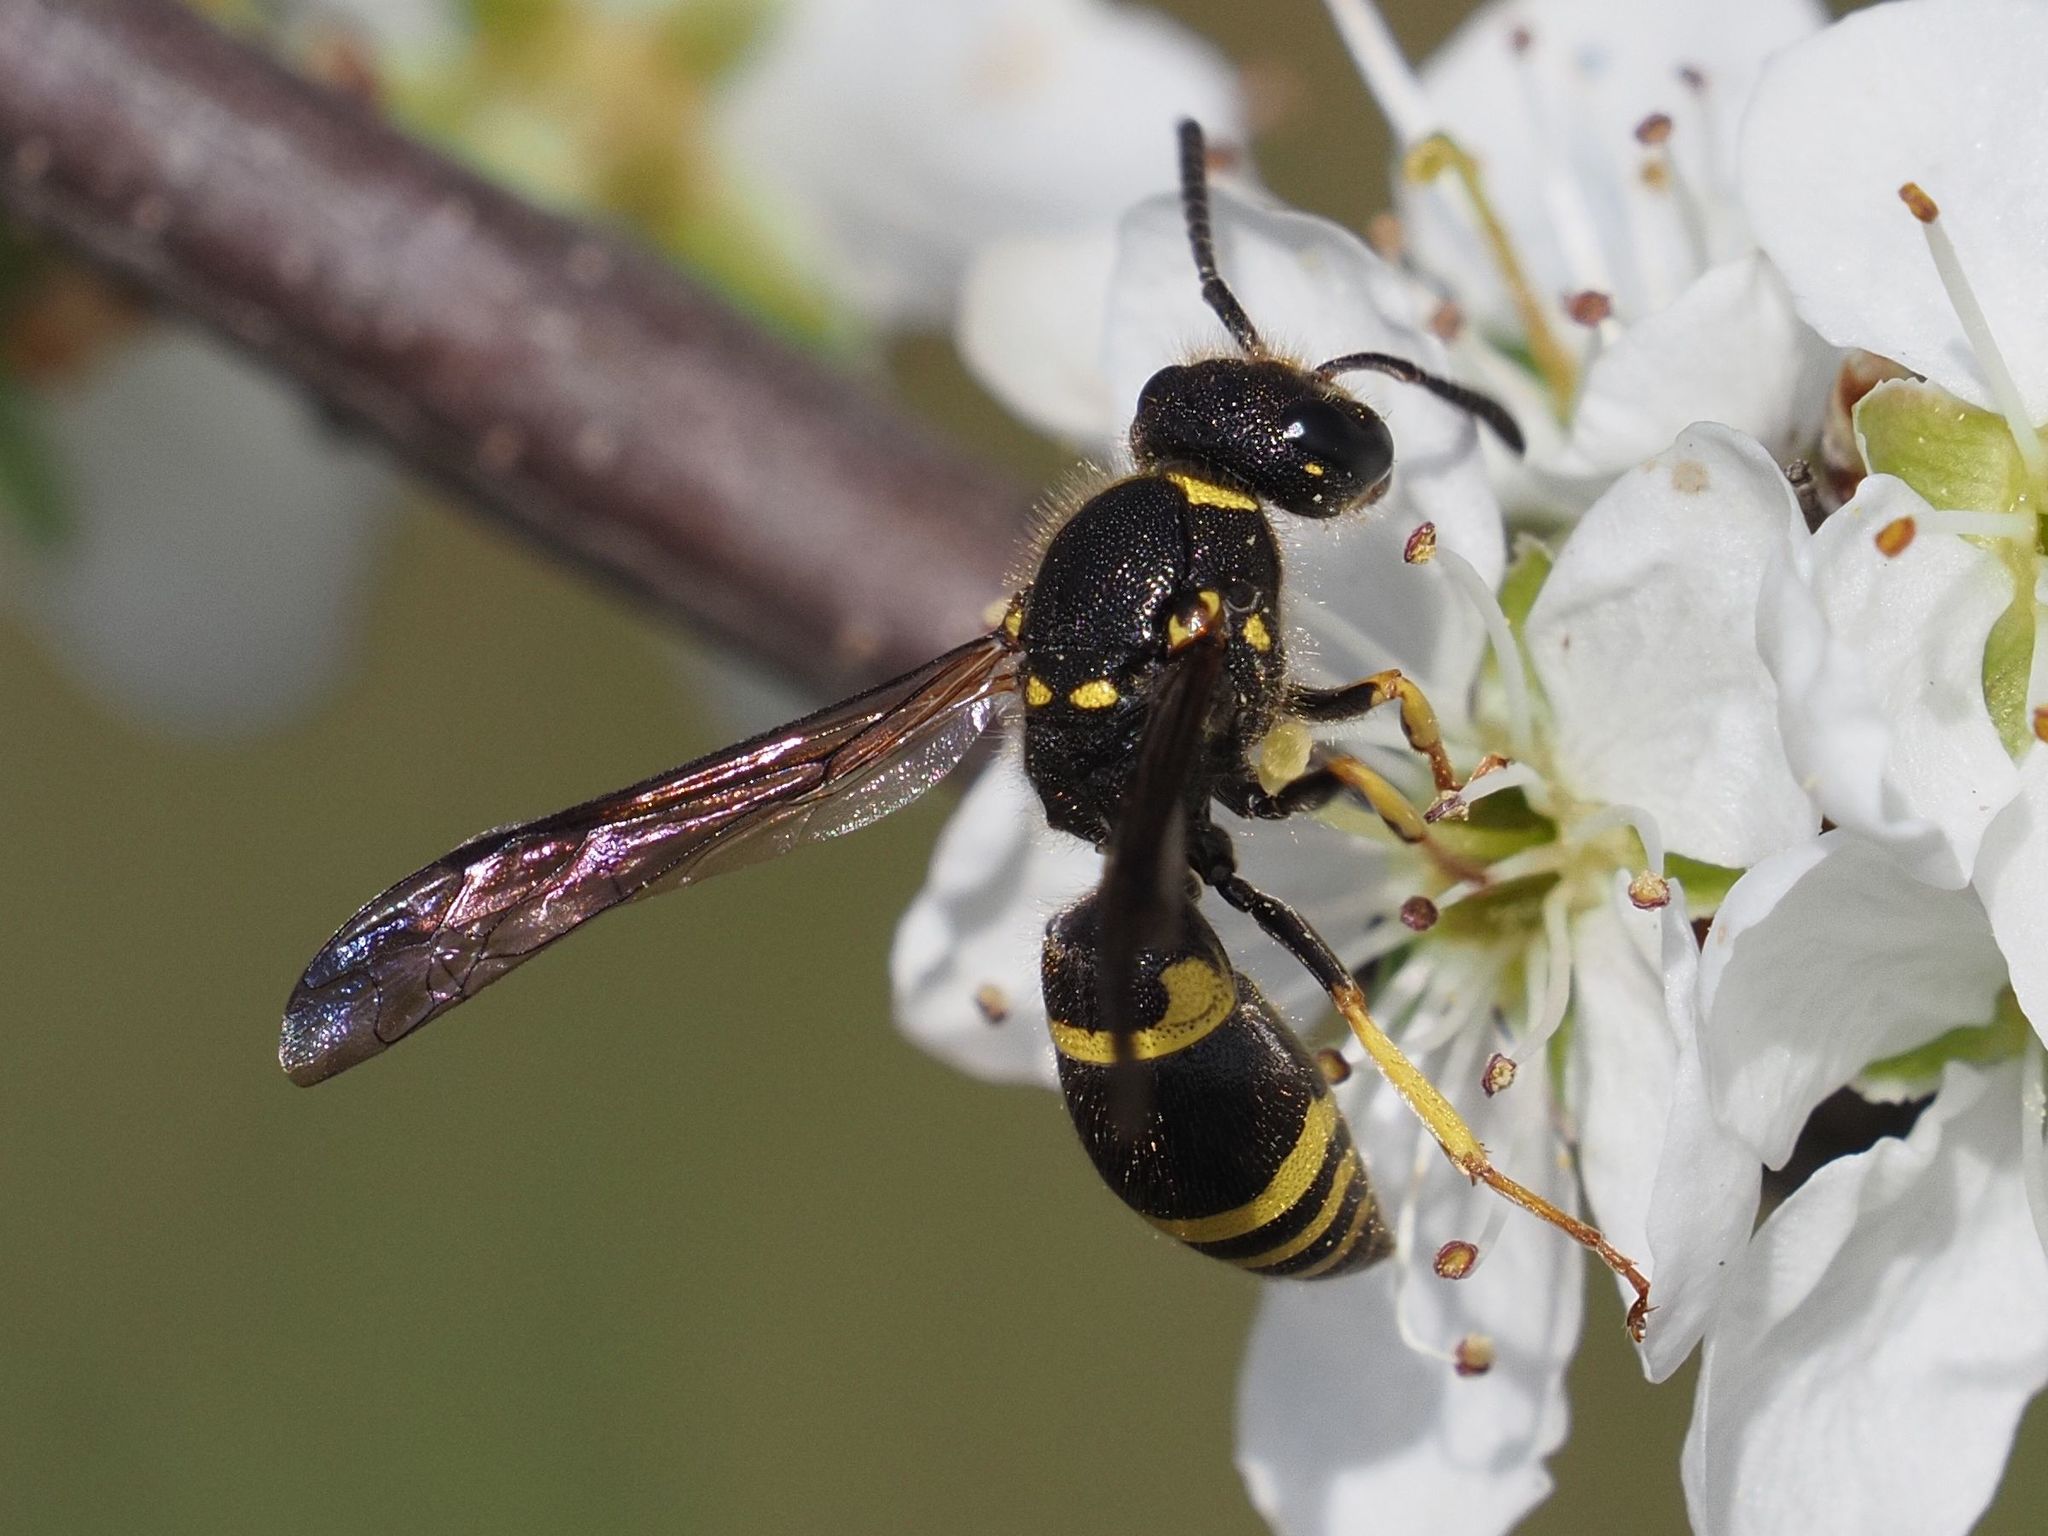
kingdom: Animalia
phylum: Arthropoda
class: Insecta
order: Hymenoptera
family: Vespidae
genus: Ancistrocerus
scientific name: Ancistrocerus nigricornis
